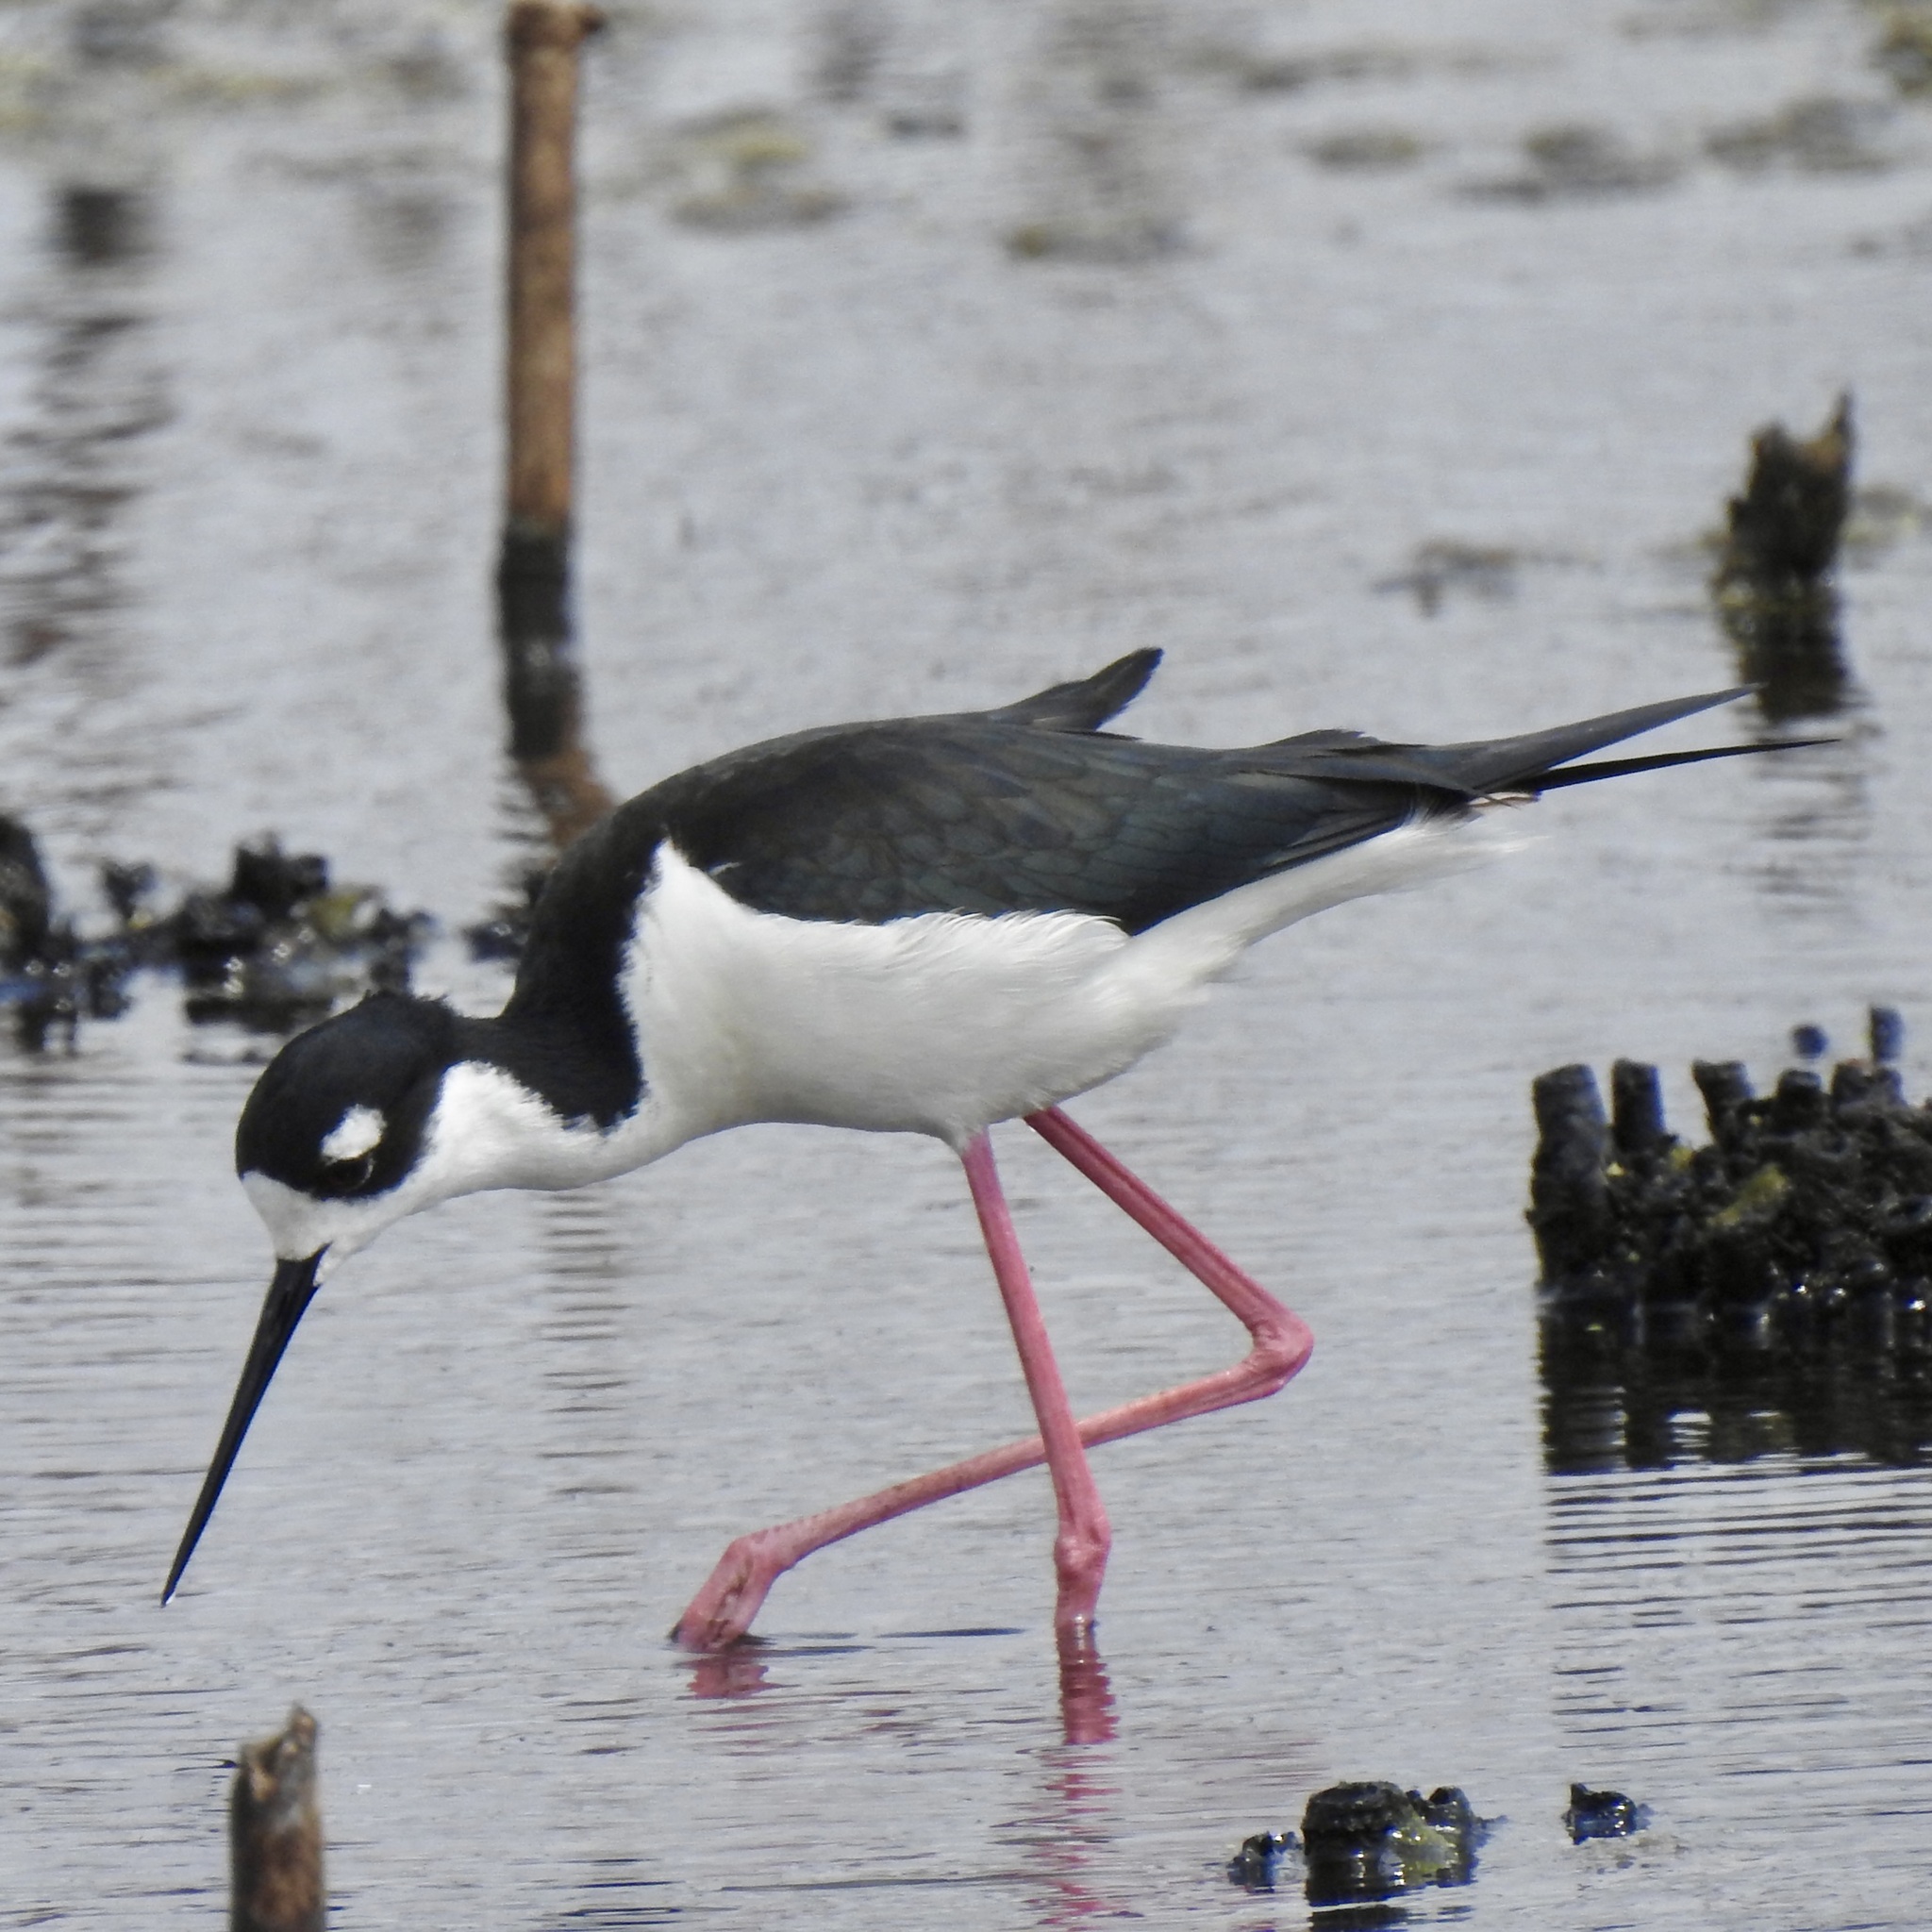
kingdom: Animalia
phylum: Chordata
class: Aves
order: Charadriiformes
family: Recurvirostridae
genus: Himantopus
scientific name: Himantopus mexicanus
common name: Black-necked stilt
